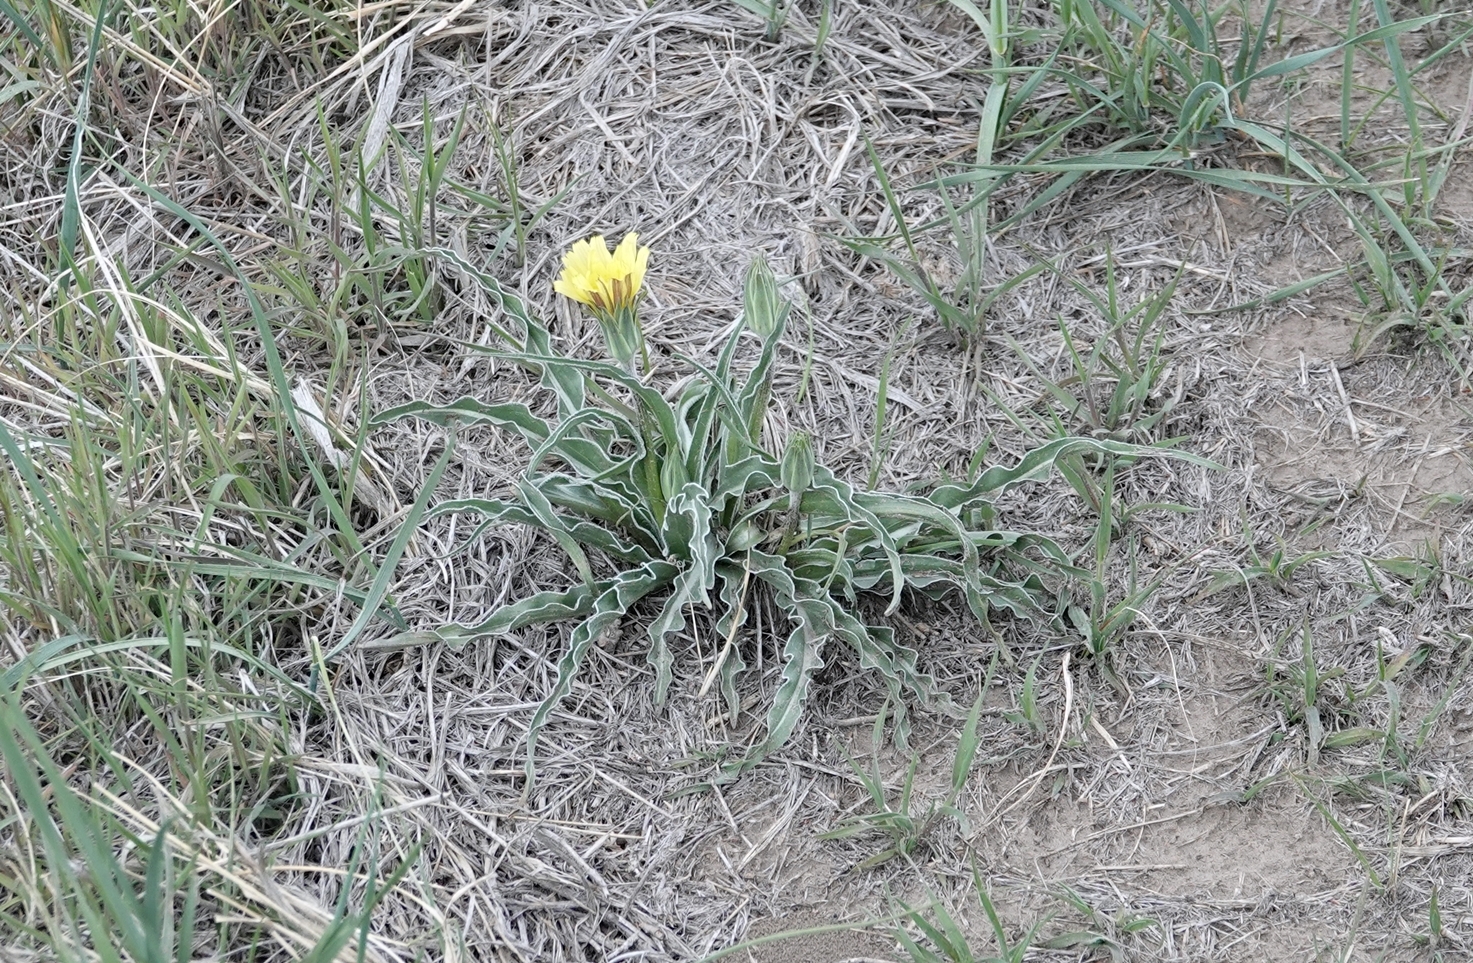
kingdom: Plantae
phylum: Tracheophyta
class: Magnoliopsida
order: Asterales
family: Asteraceae
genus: Microseris
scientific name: Microseris cuspidata
